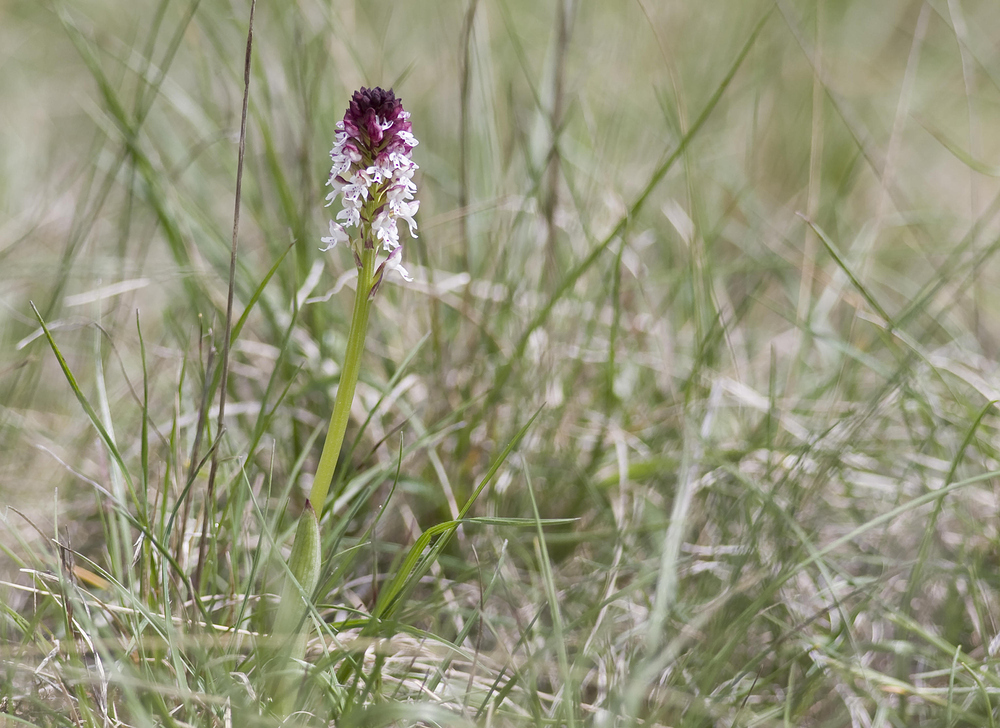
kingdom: Plantae
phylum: Tracheophyta
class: Liliopsida
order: Asparagales
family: Orchidaceae
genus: Neotinea
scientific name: Neotinea ustulata
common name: Burnt orchid
